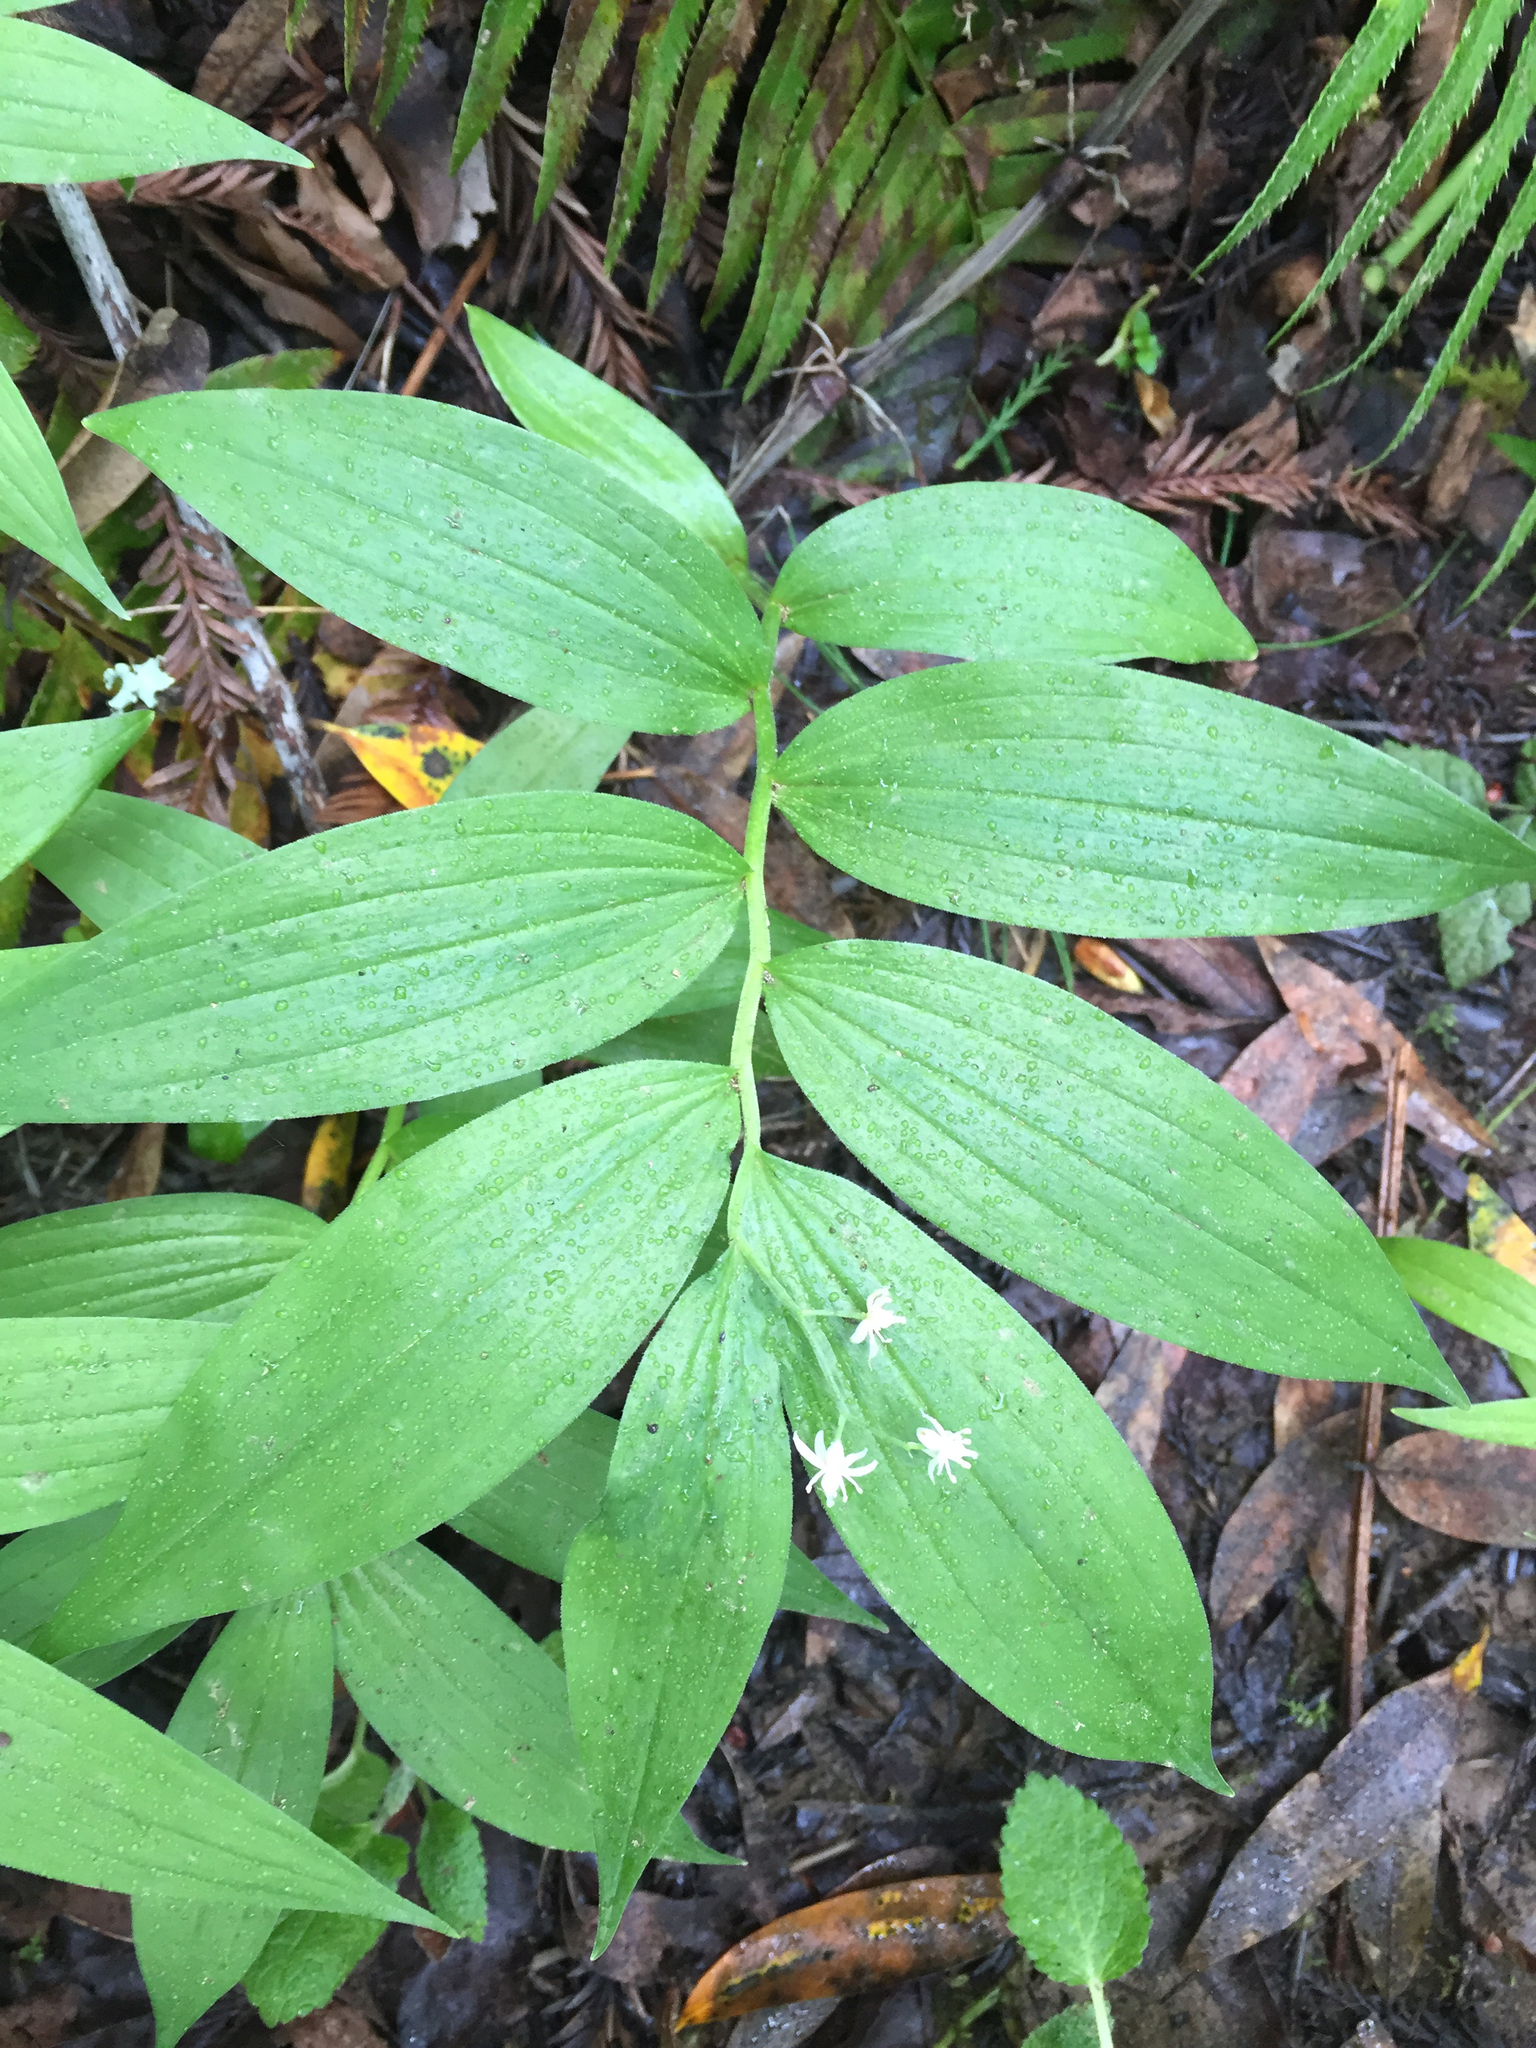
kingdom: Plantae
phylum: Tracheophyta
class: Liliopsida
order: Asparagales
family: Asparagaceae
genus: Maianthemum
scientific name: Maianthemum stellatum
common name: Little false solomon's seal
